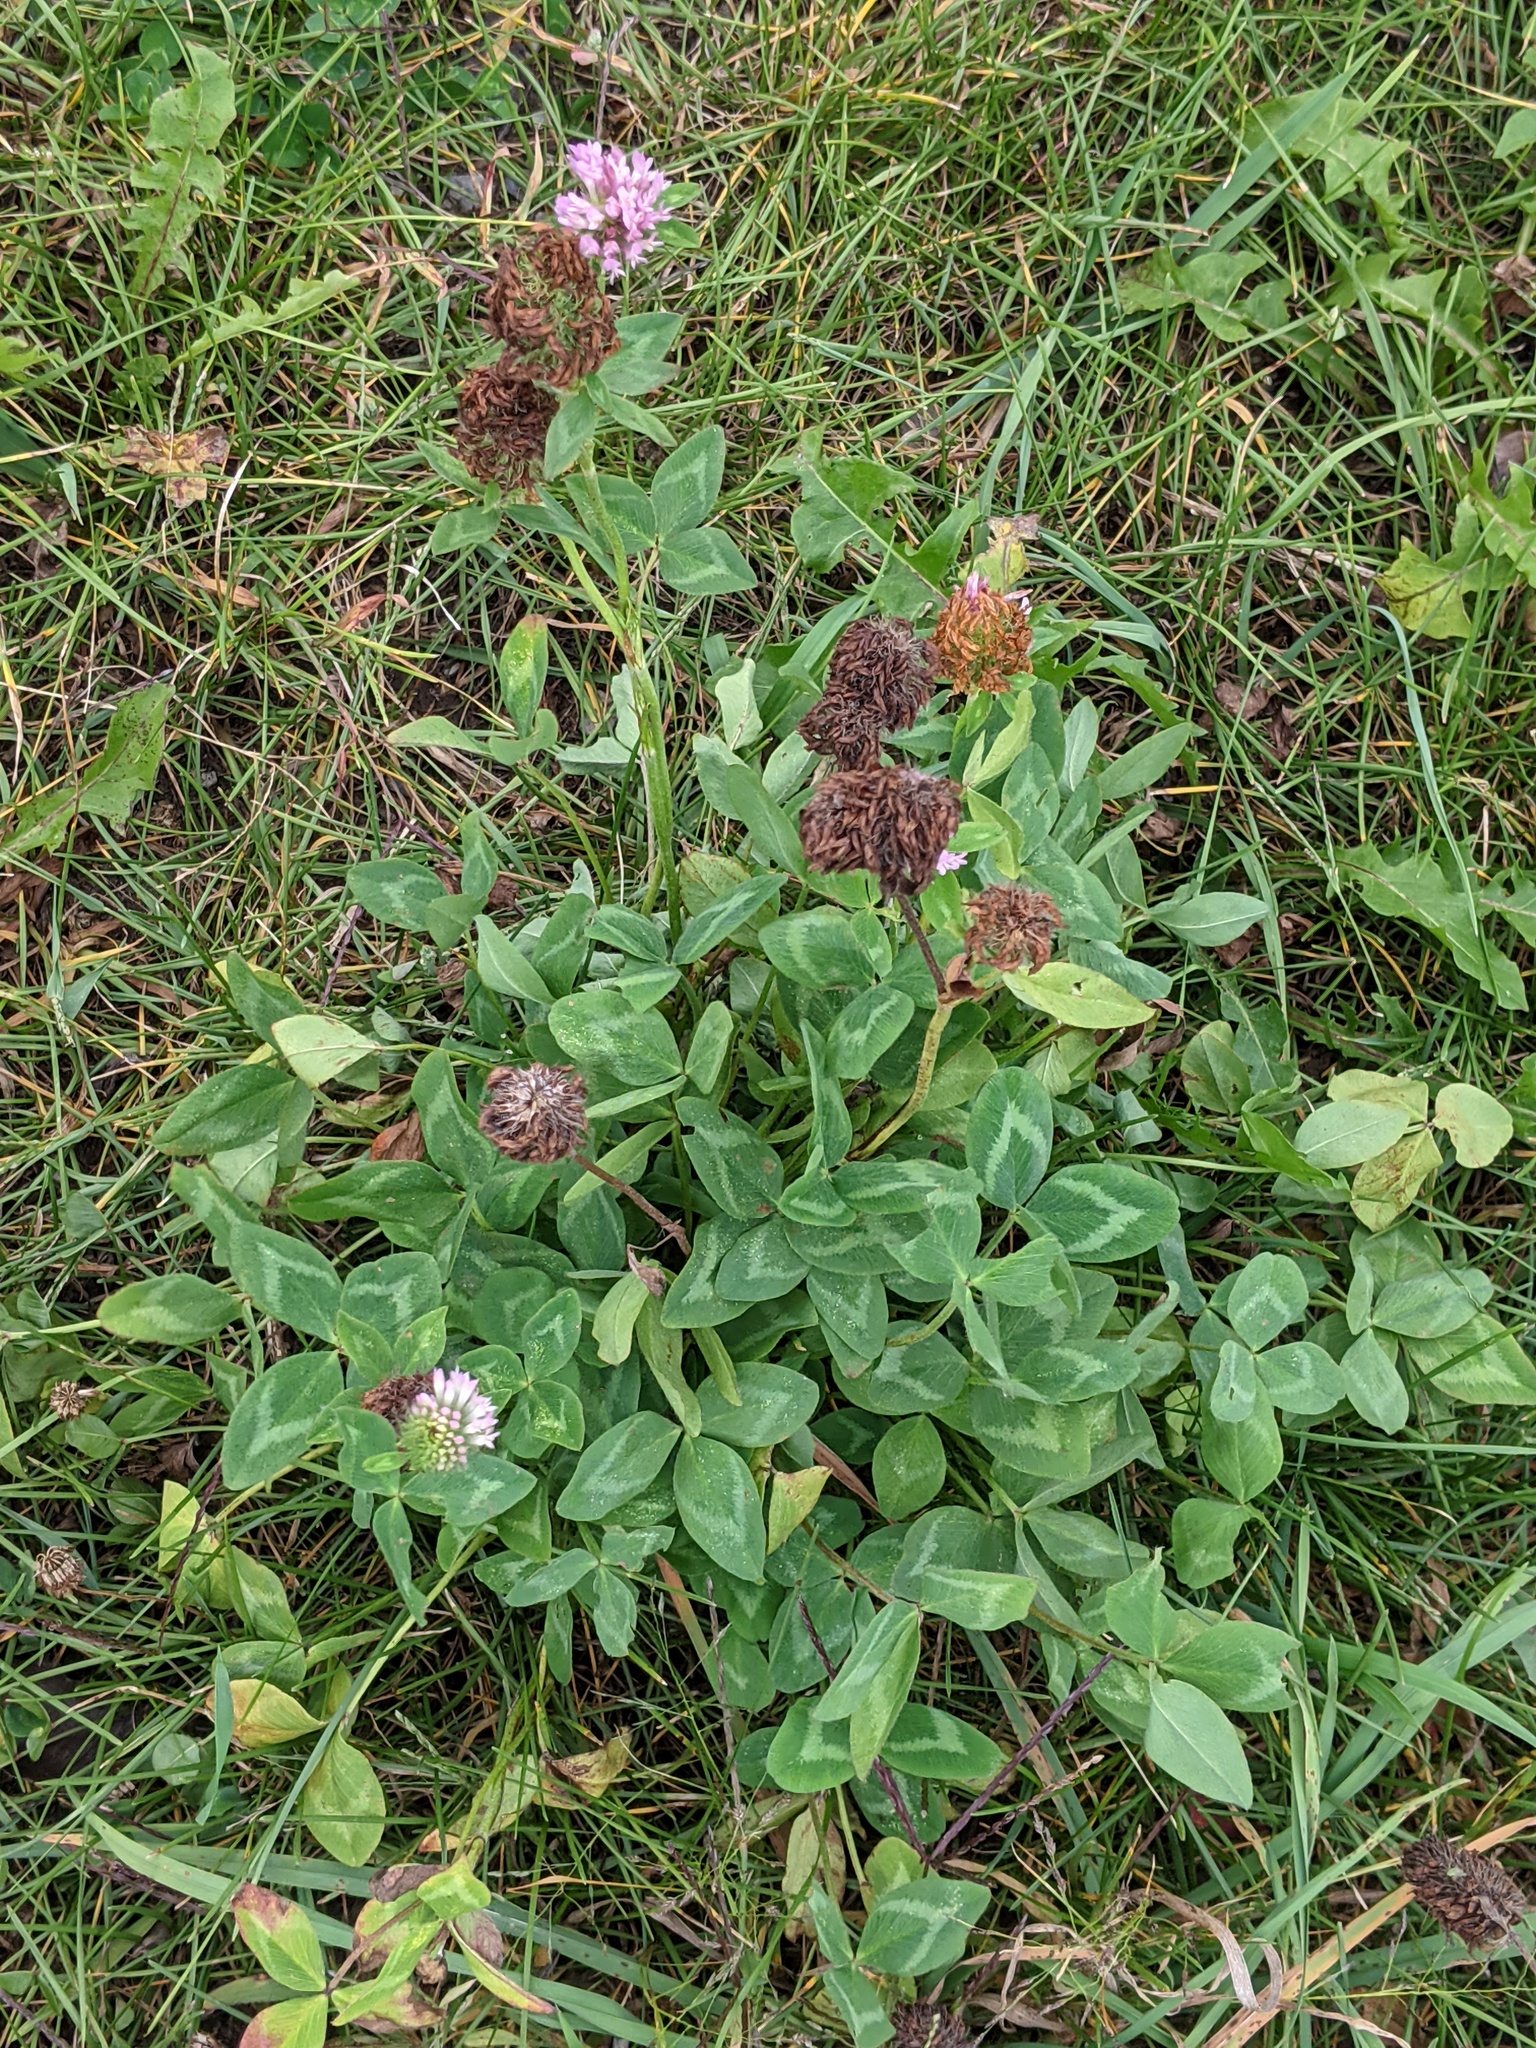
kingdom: Plantae
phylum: Tracheophyta
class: Magnoliopsida
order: Fabales
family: Fabaceae
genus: Trifolium
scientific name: Trifolium pratense
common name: Red clover
